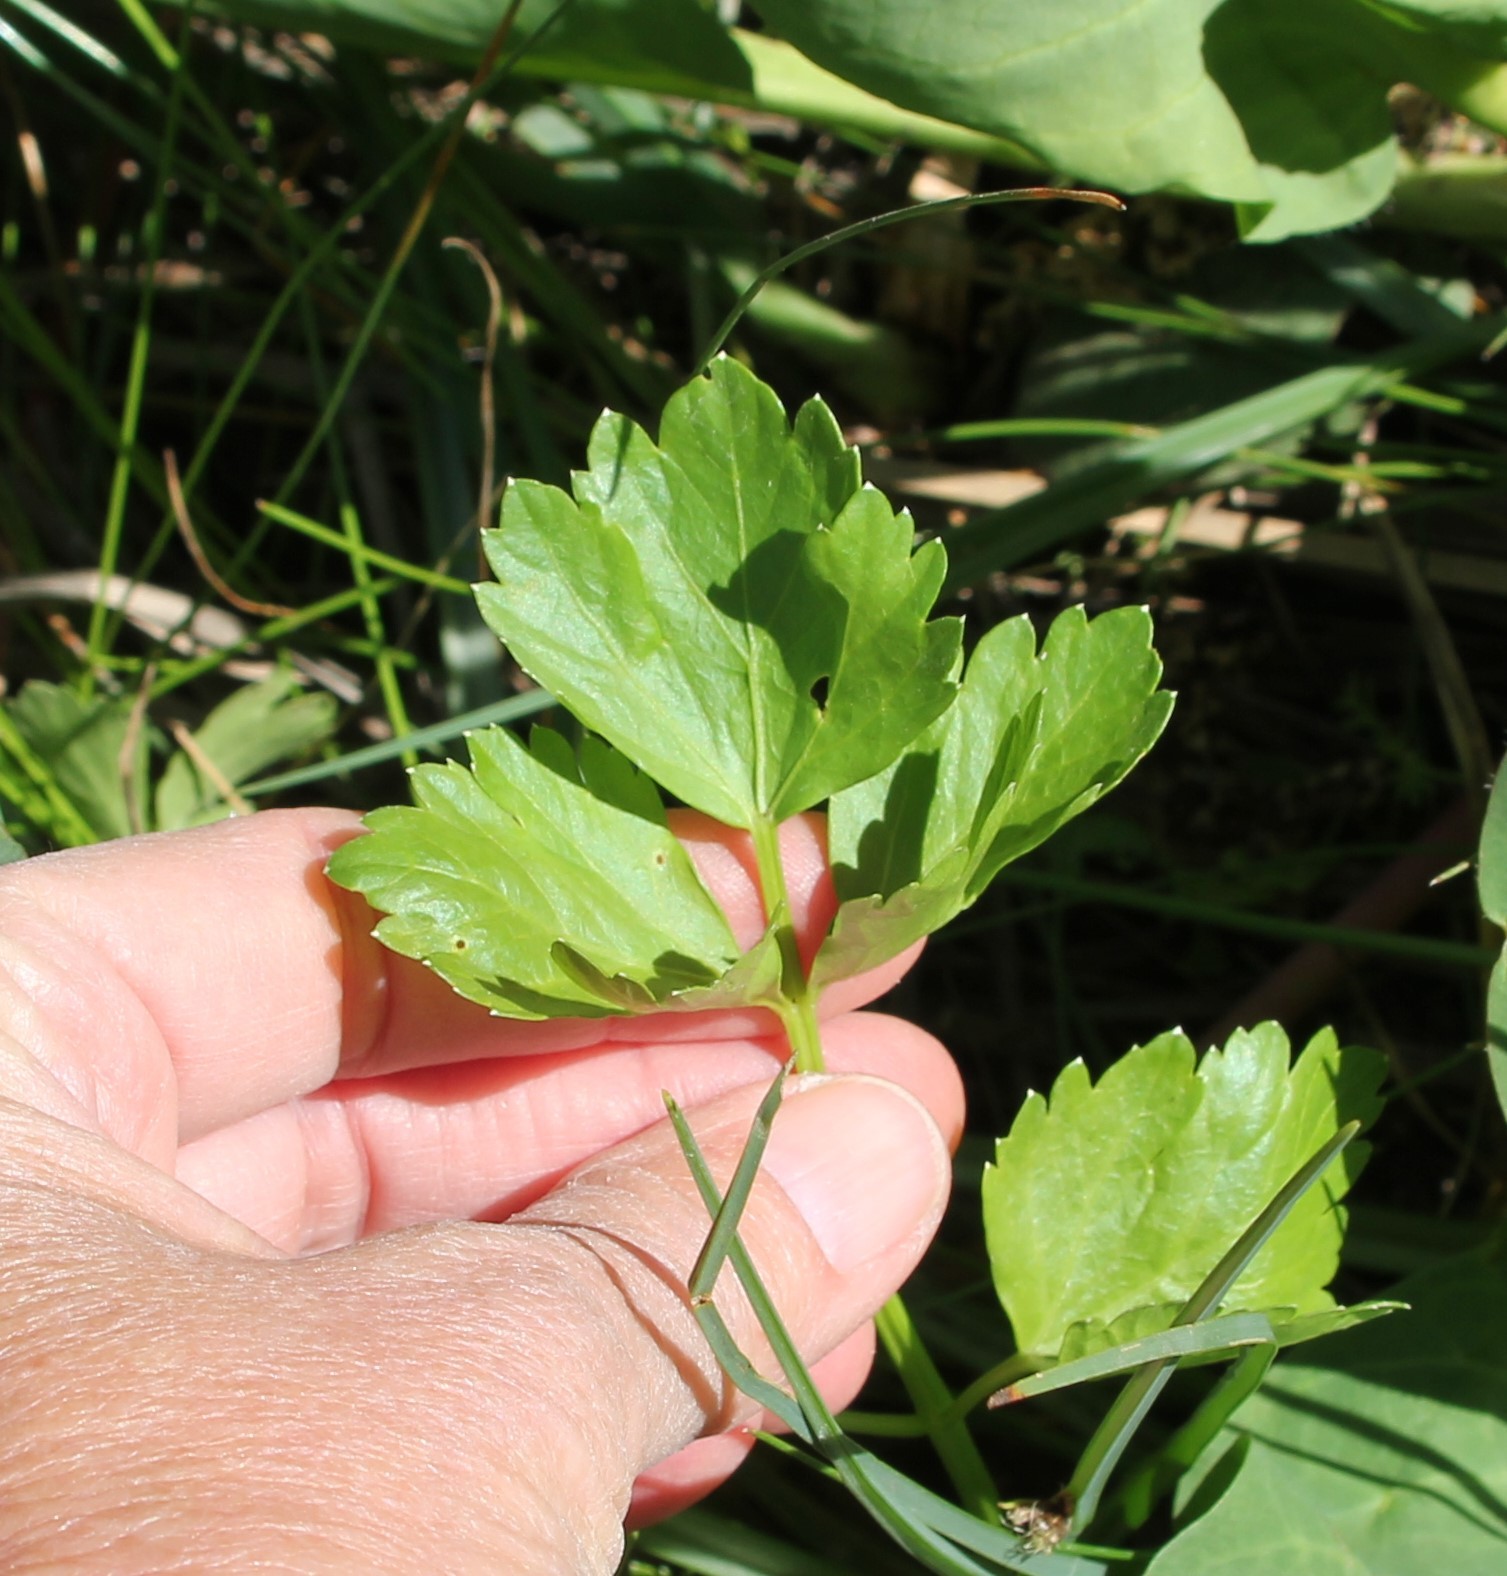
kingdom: Plantae
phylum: Tracheophyta
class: Magnoliopsida
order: Apiales
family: Apiaceae
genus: Apium
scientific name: Apium graveolens
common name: Wild celery
